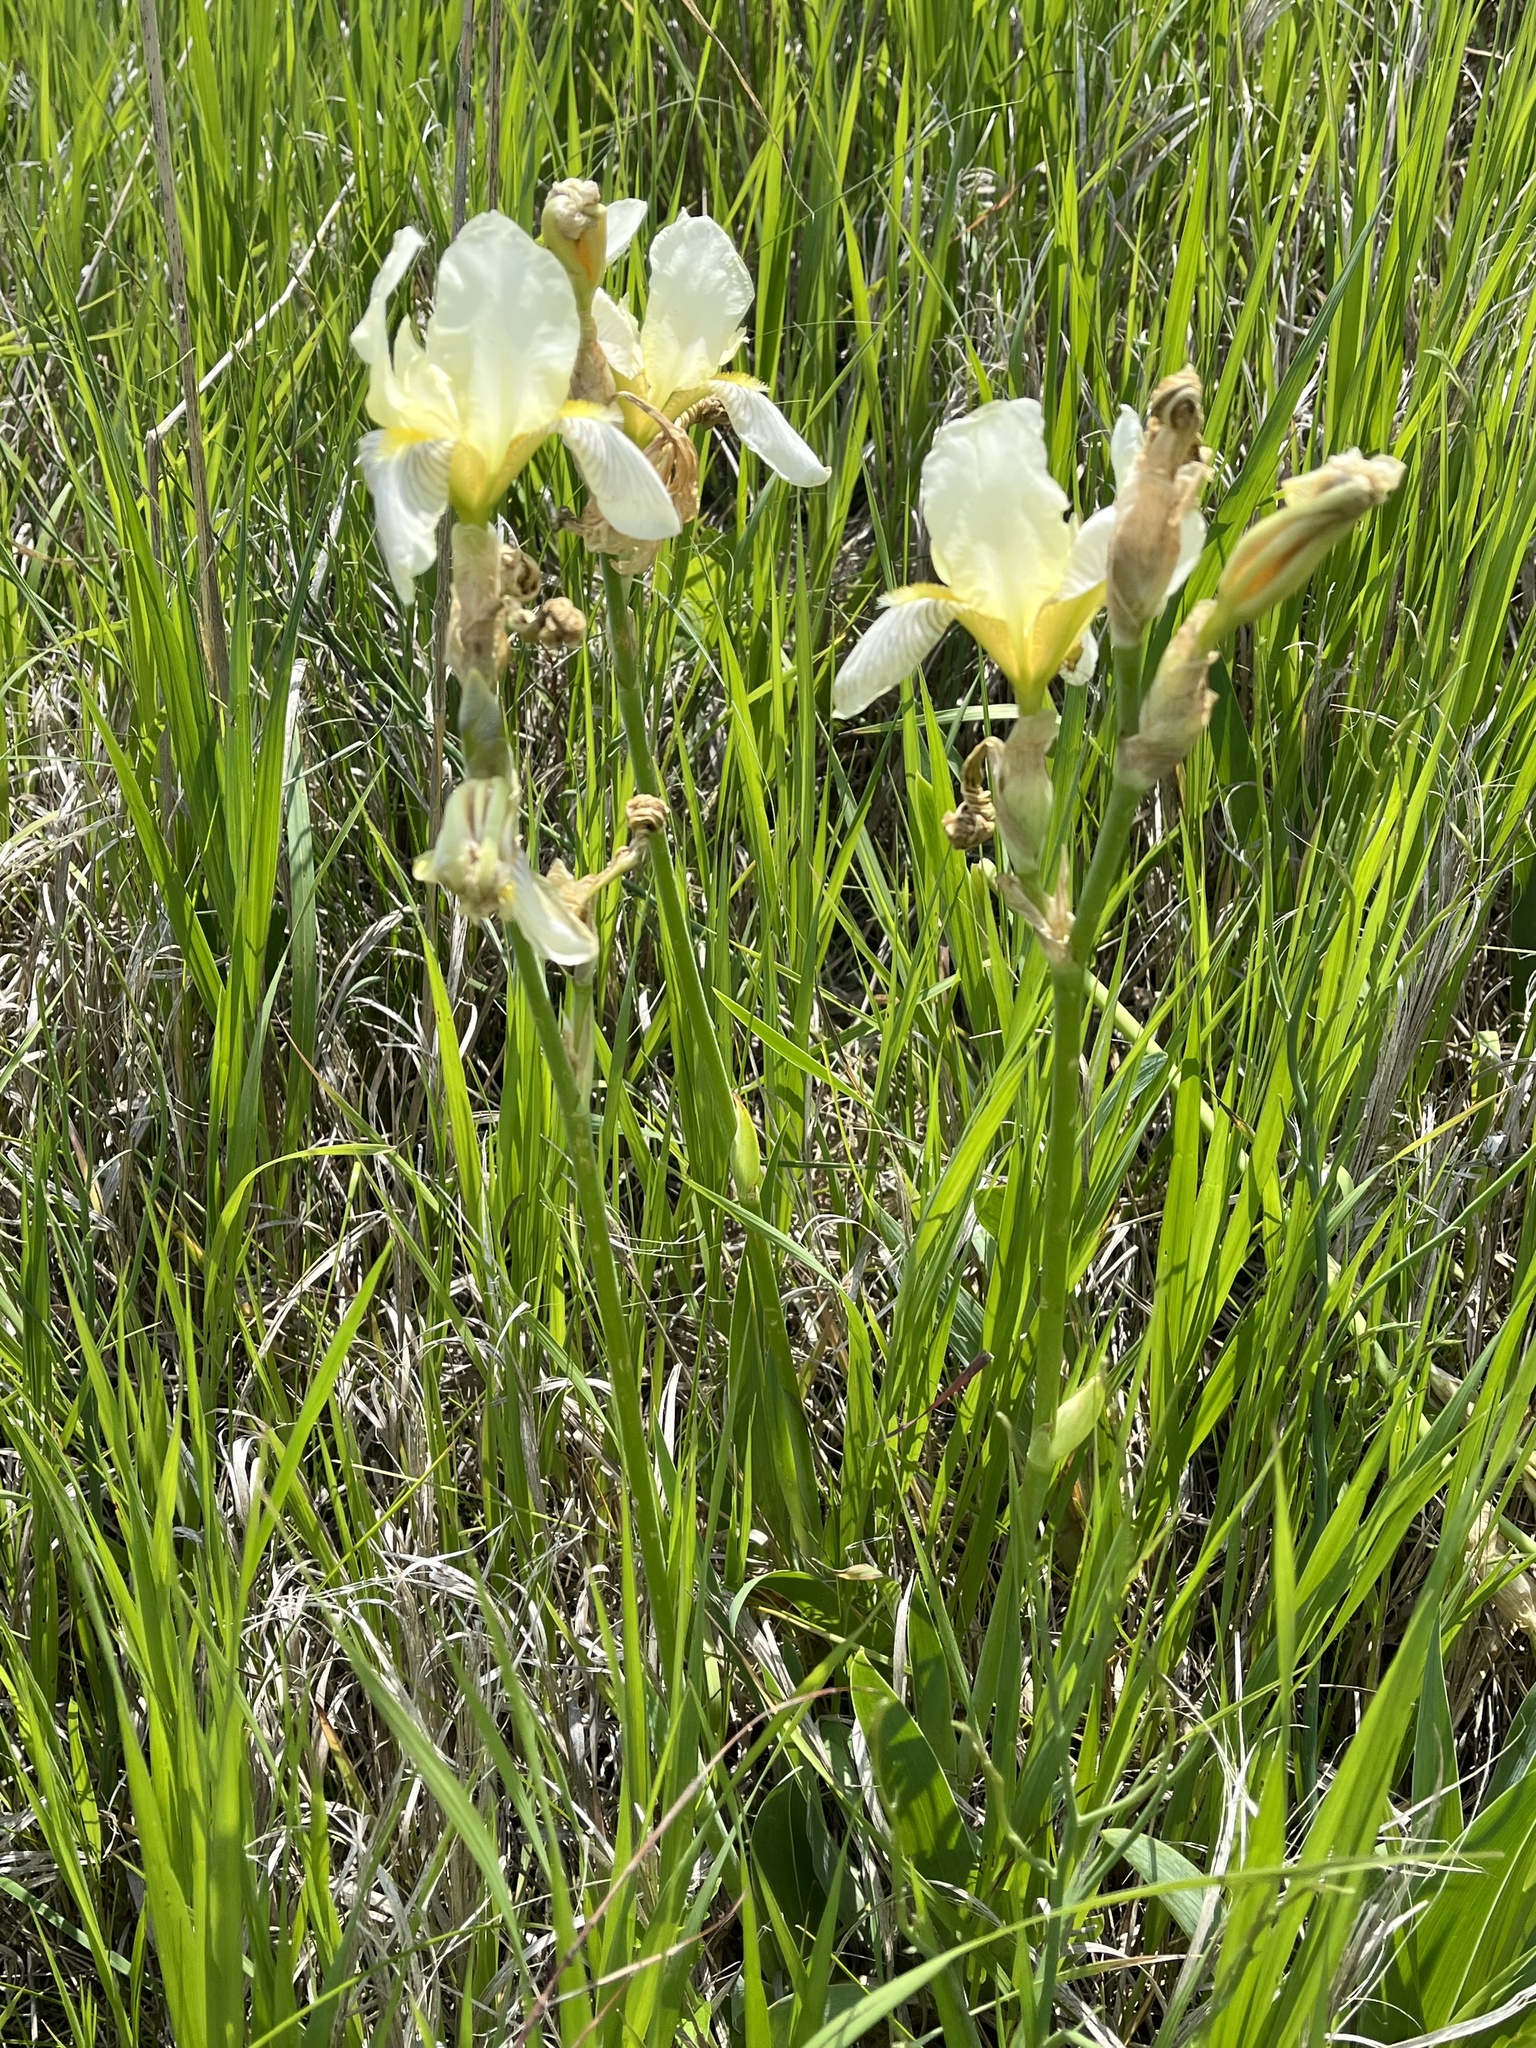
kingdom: Plantae
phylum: Tracheophyta
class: Liliopsida
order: Asparagales
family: Iridaceae
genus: Iris
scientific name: Iris hybrida
